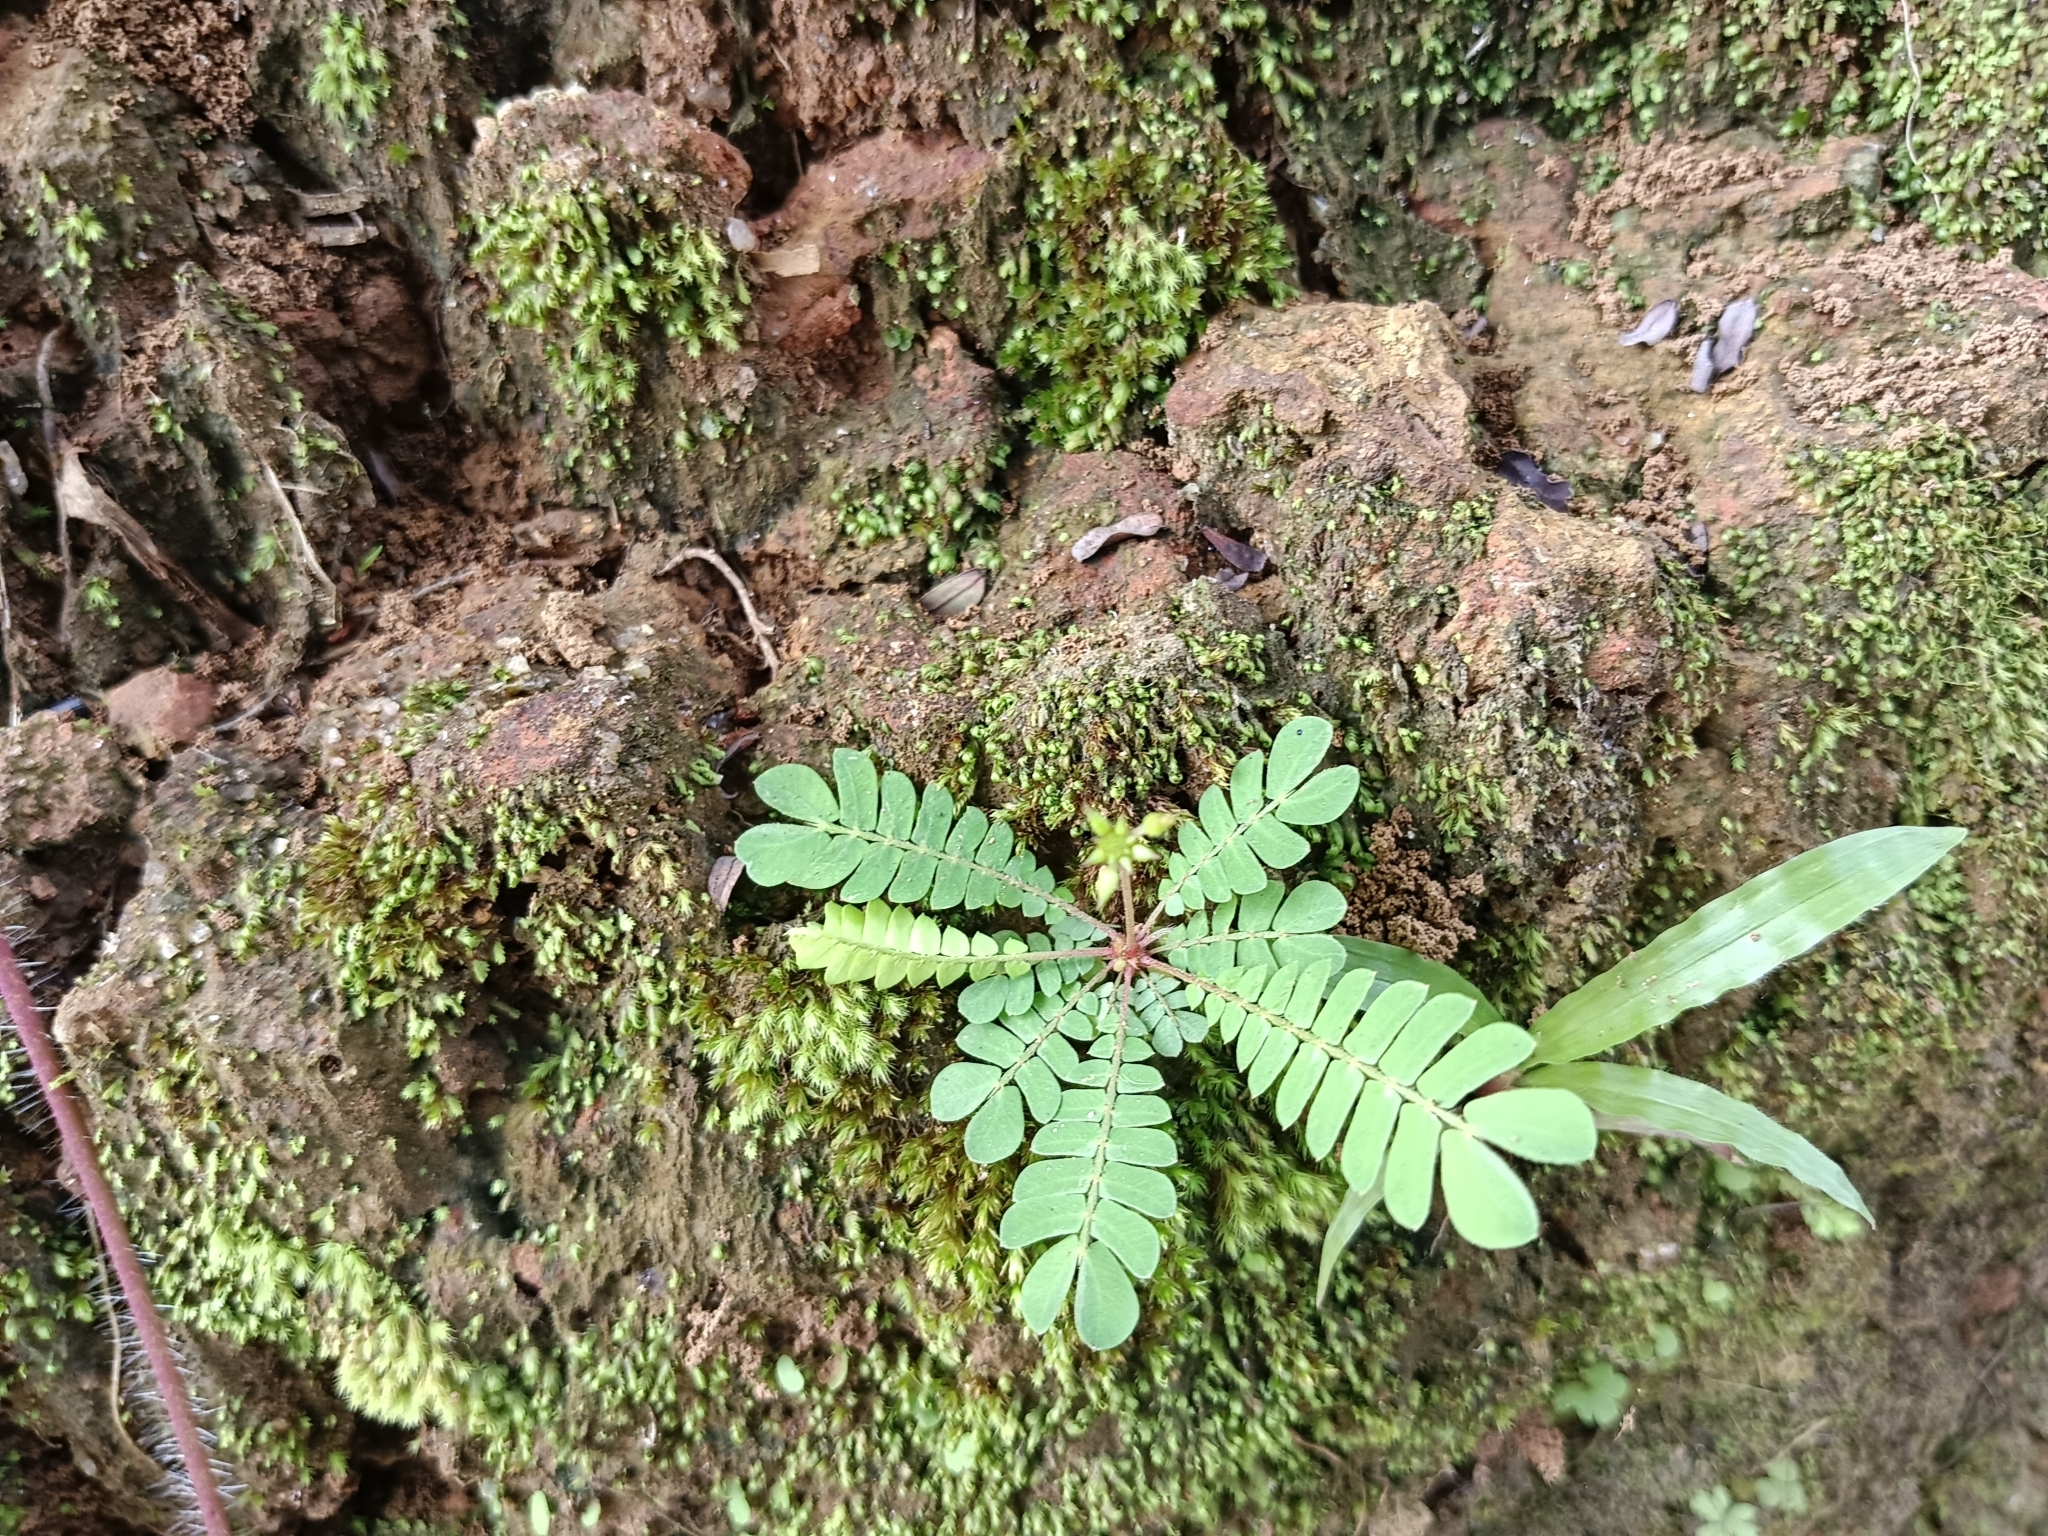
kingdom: Plantae
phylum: Tracheophyta
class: Magnoliopsida
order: Oxalidales
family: Oxalidaceae
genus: Biophytum
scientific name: Biophytum sensitivum
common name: Lifeplant
